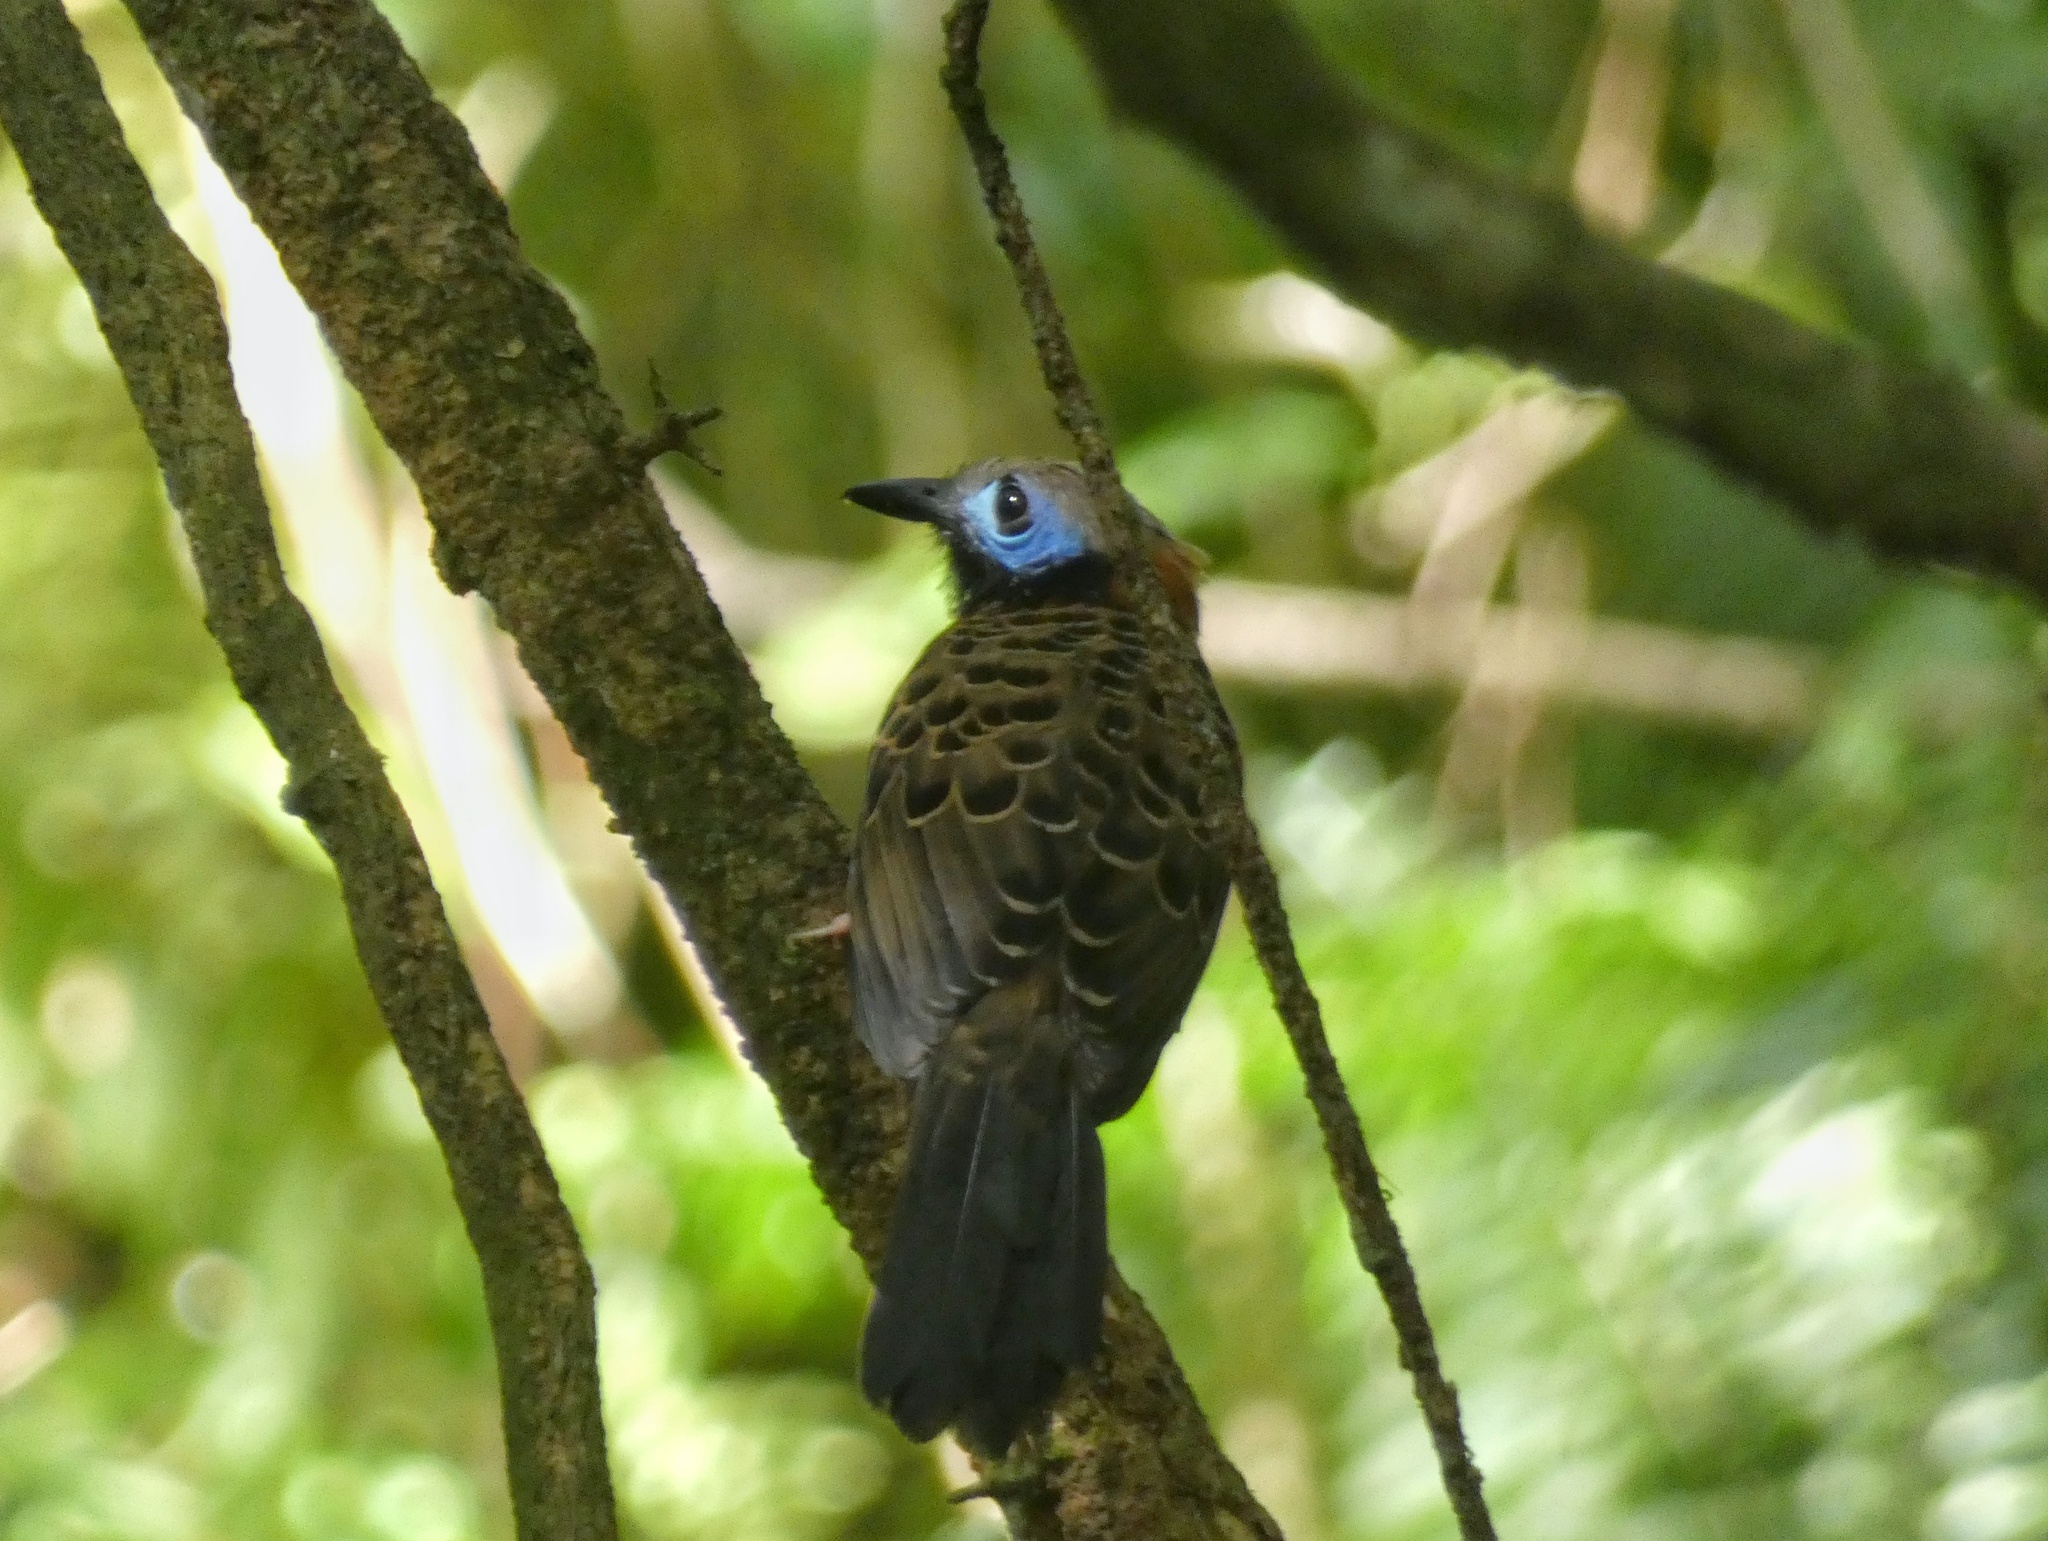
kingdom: Animalia
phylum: Chordata
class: Aves
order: Passeriformes
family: Thamnophilidae
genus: Phaenostictus
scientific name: Phaenostictus mcleannani
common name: Ocellated antbird
